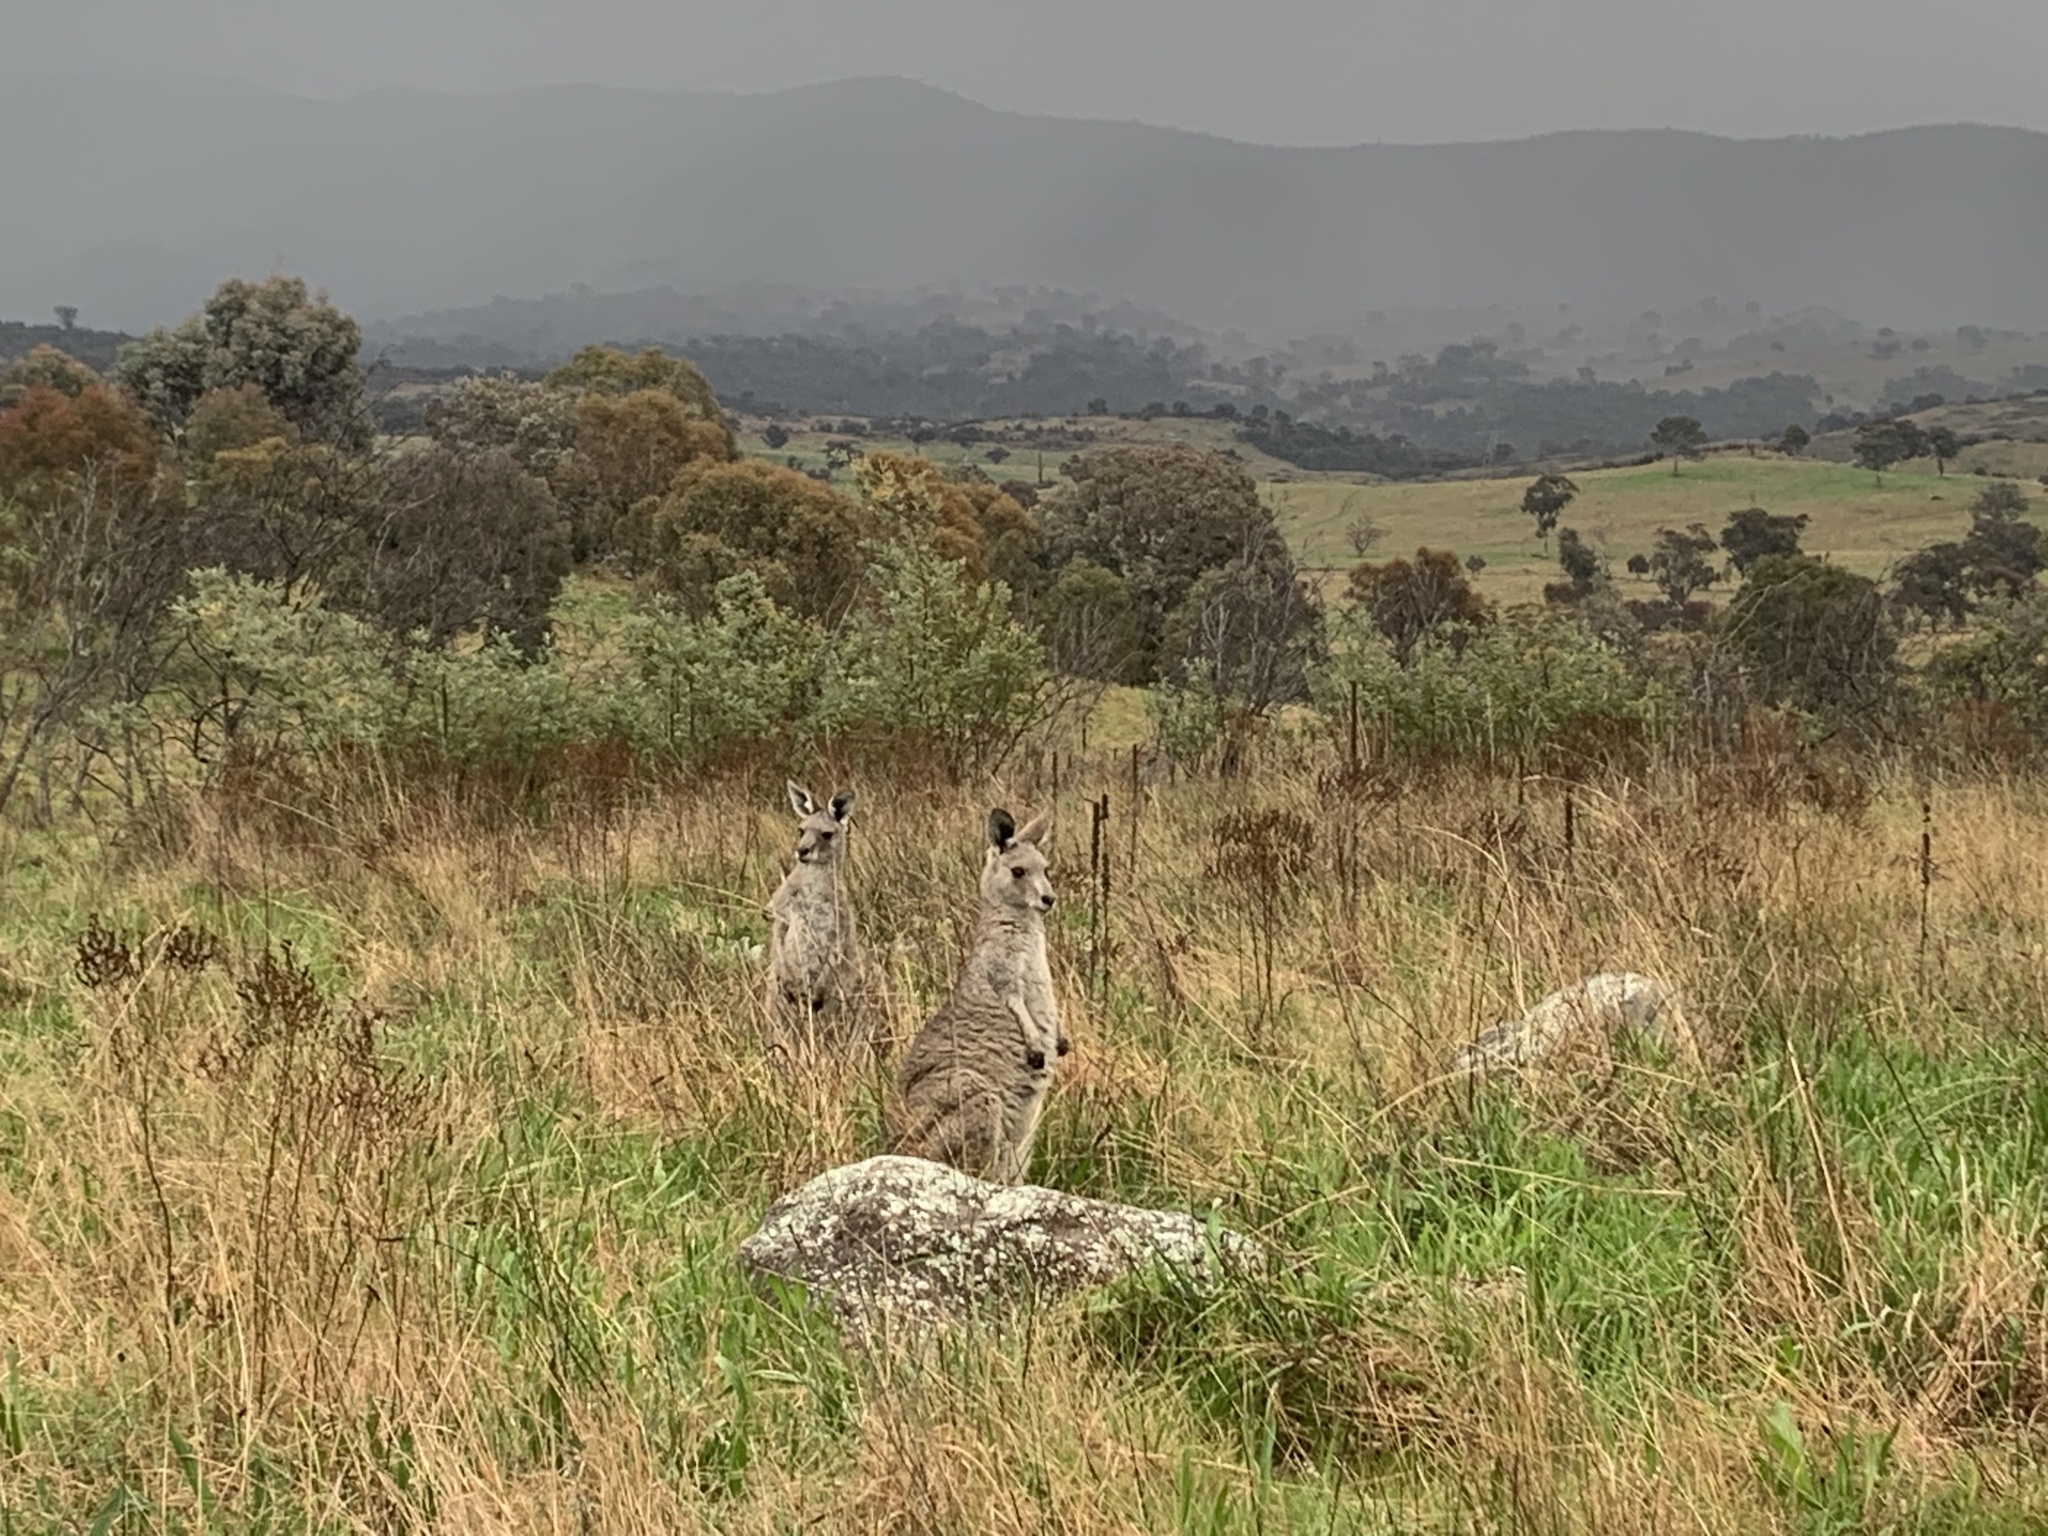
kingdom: Animalia
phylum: Chordata
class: Mammalia
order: Diprotodontia
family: Macropodidae
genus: Macropus
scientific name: Macropus giganteus
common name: Eastern grey kangaroo
